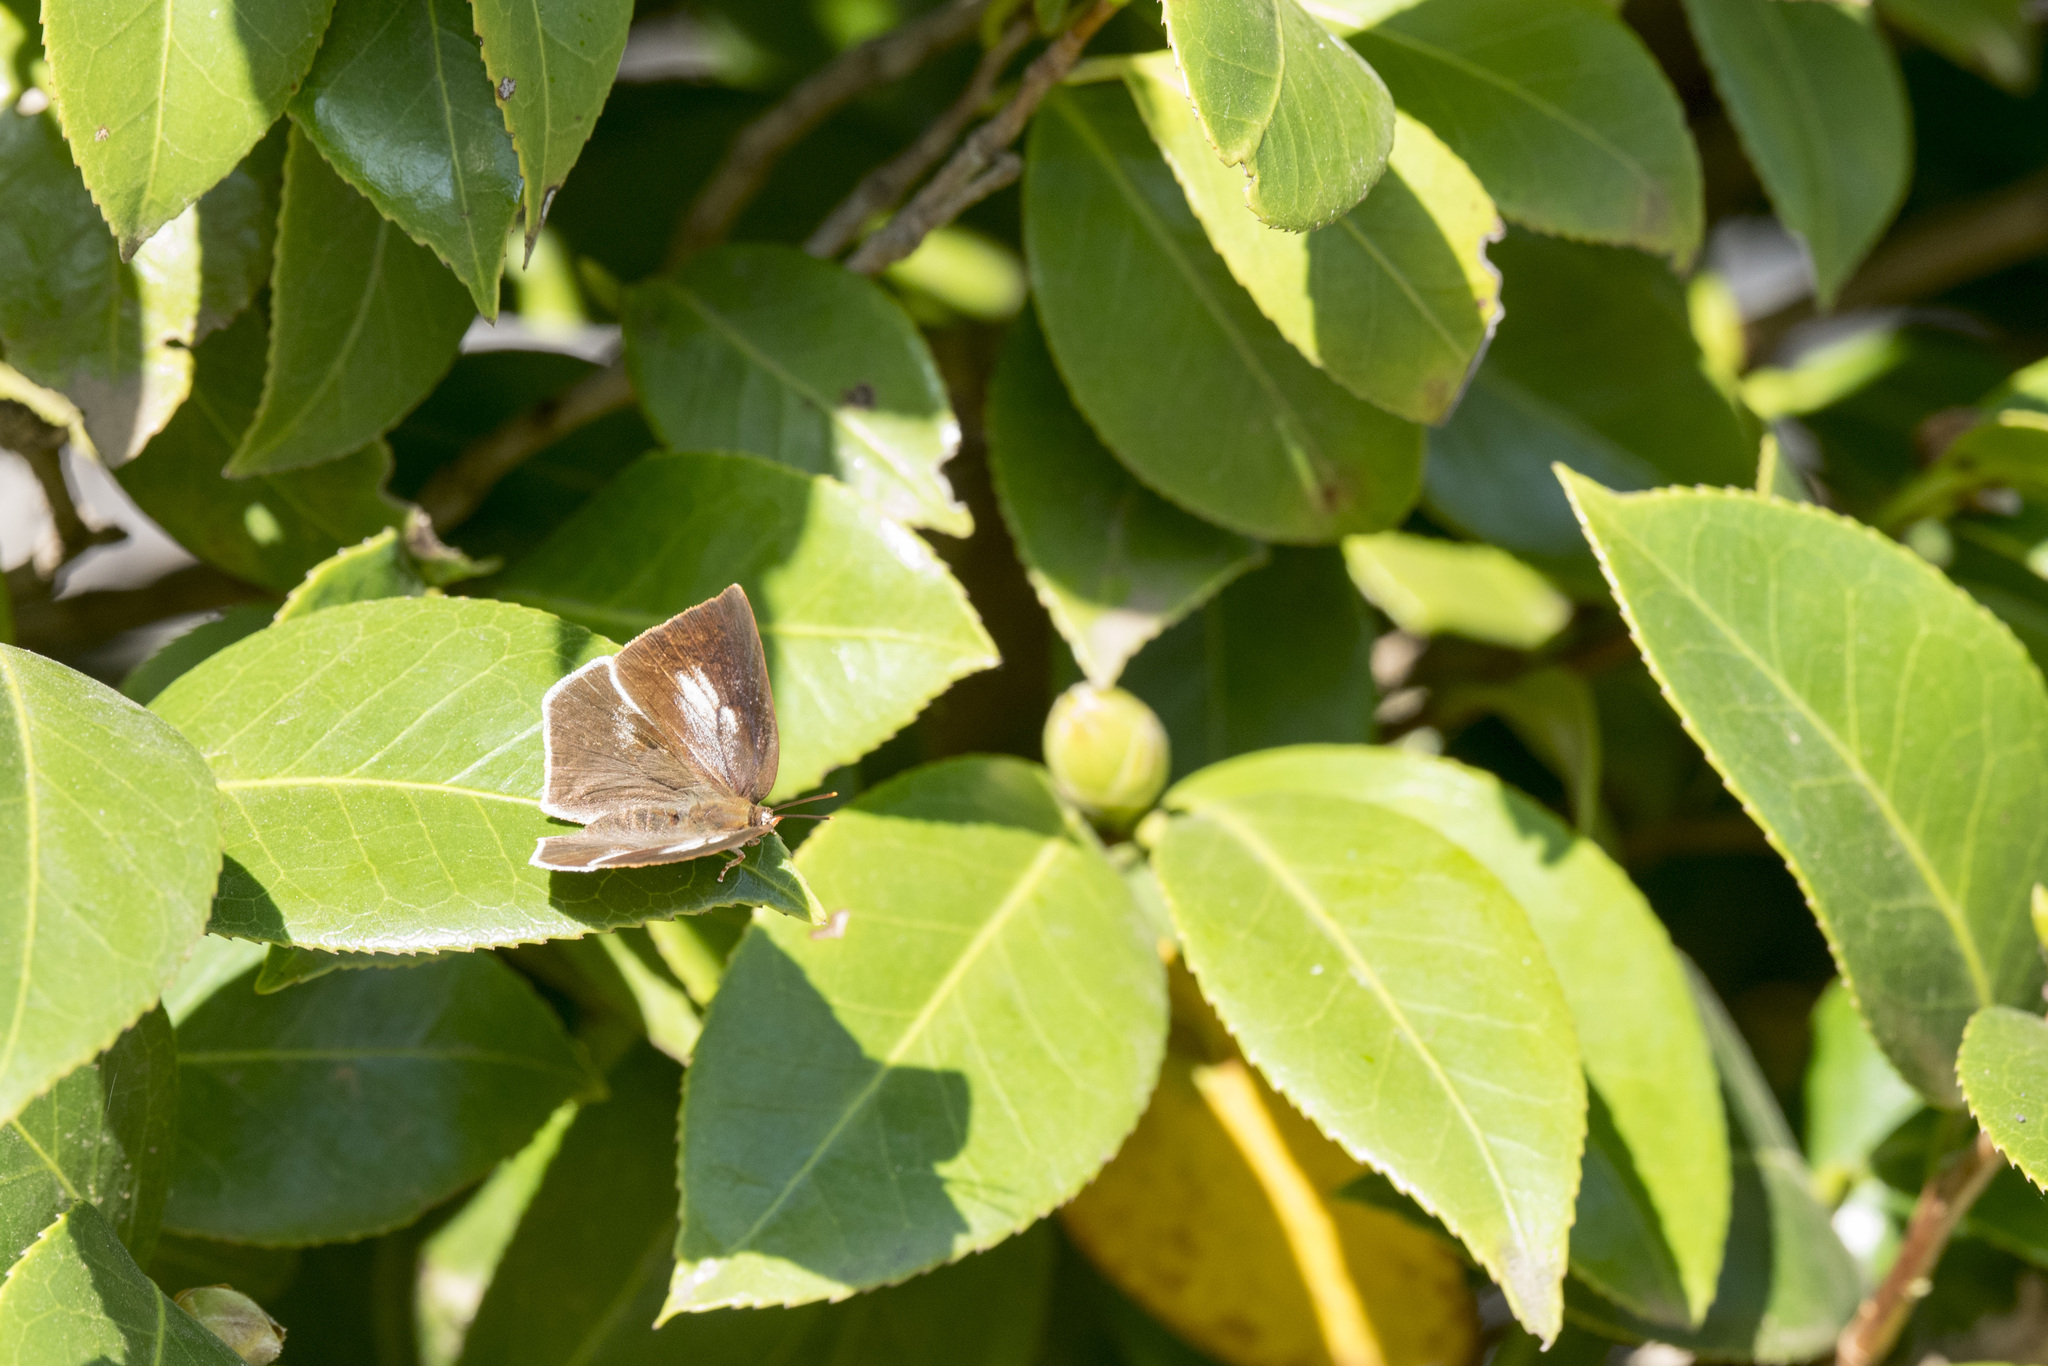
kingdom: Animalia
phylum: Arthropoda
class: Insecta
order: Lepidoptera
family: Lycaenidae
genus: Curetis
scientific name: Curetis acuta
